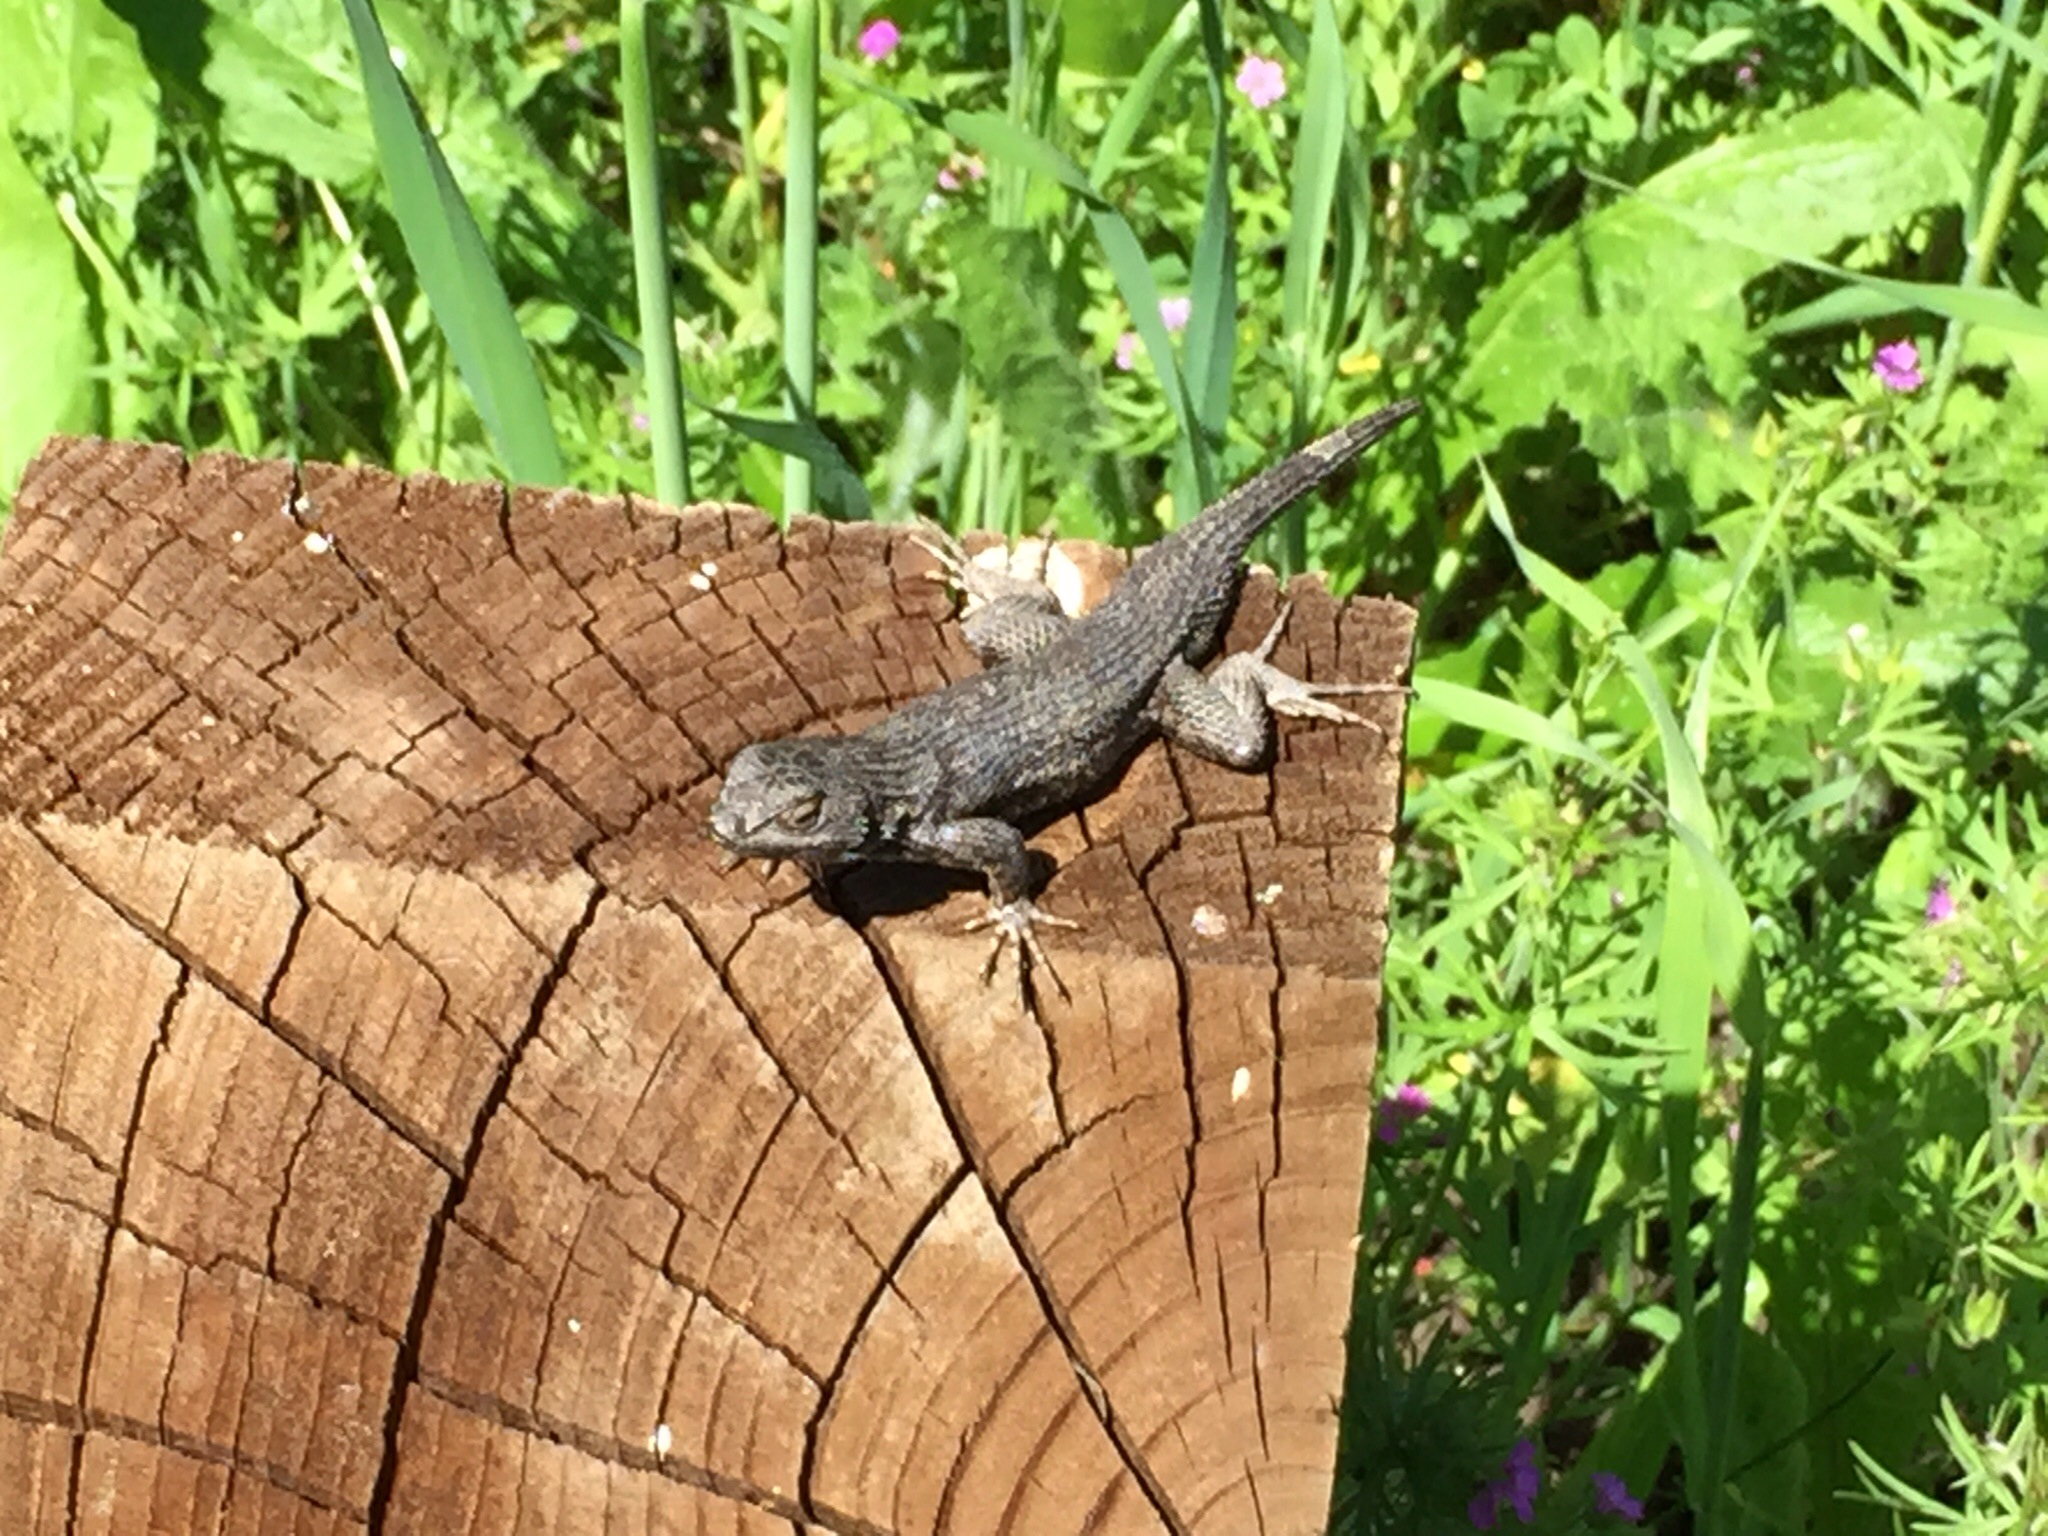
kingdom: Animalia
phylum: Chordata
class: Squamata
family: Phrynosomatidae
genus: Sceloporus
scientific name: Sceloporus occidentalis
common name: Western fence lizard
